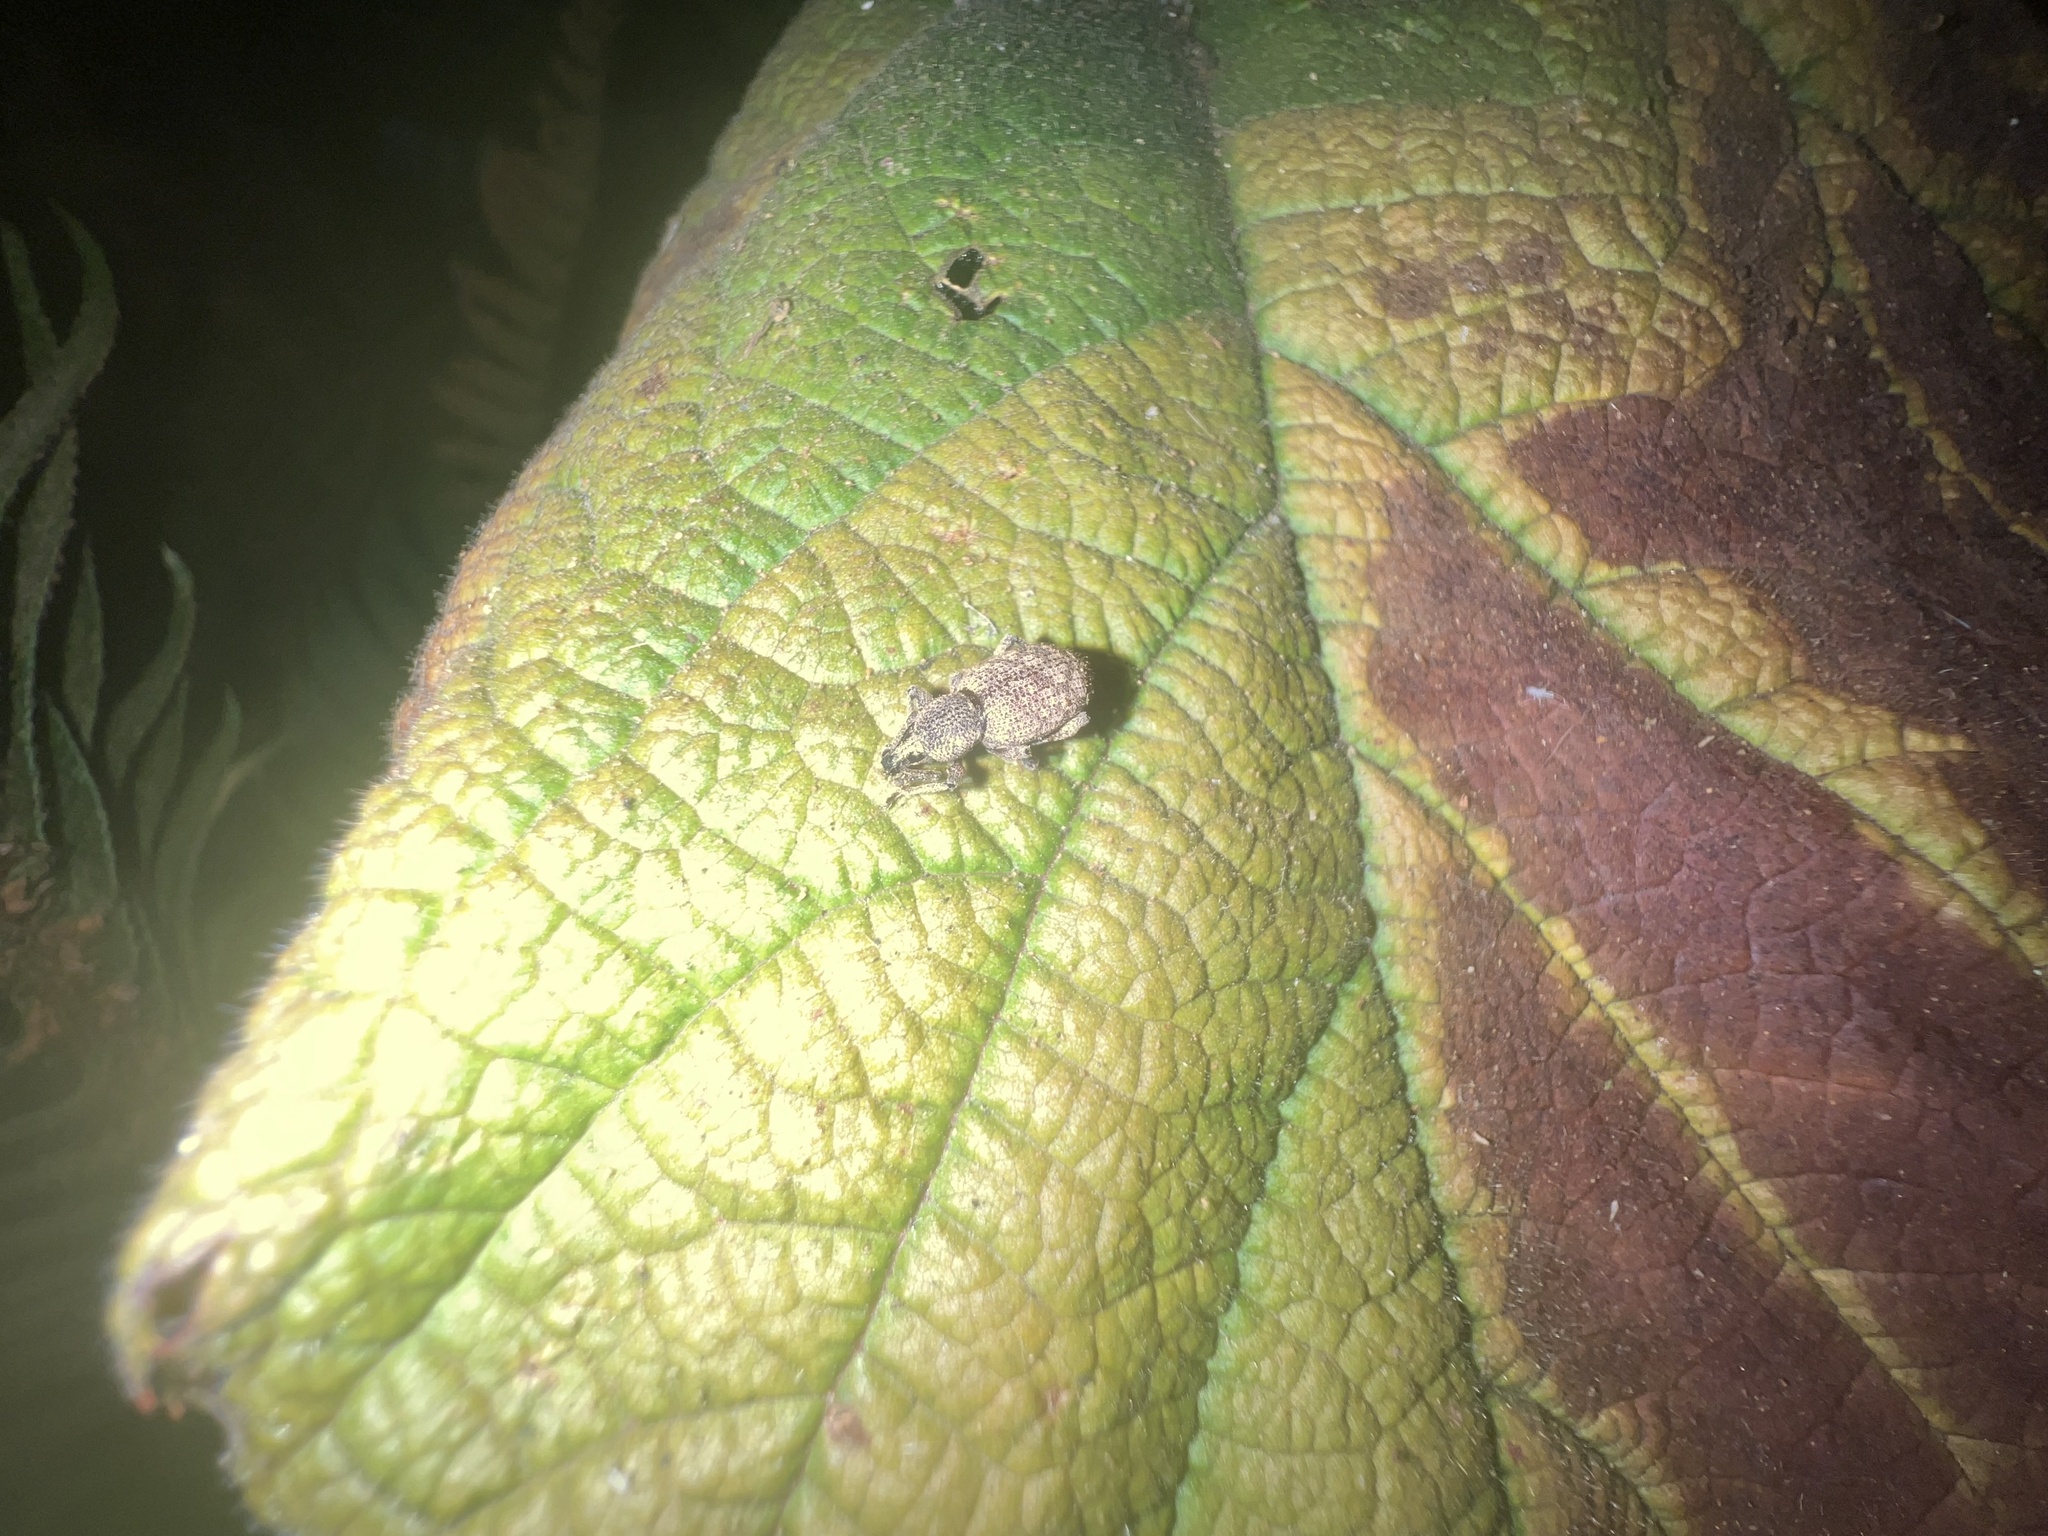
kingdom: Animalia
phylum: Arthropoda
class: Insecta
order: Coleoptera
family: Curculionidae
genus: Otiorhynchus
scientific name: Otiorhynchus singularis
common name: Clay-coloured weevil
